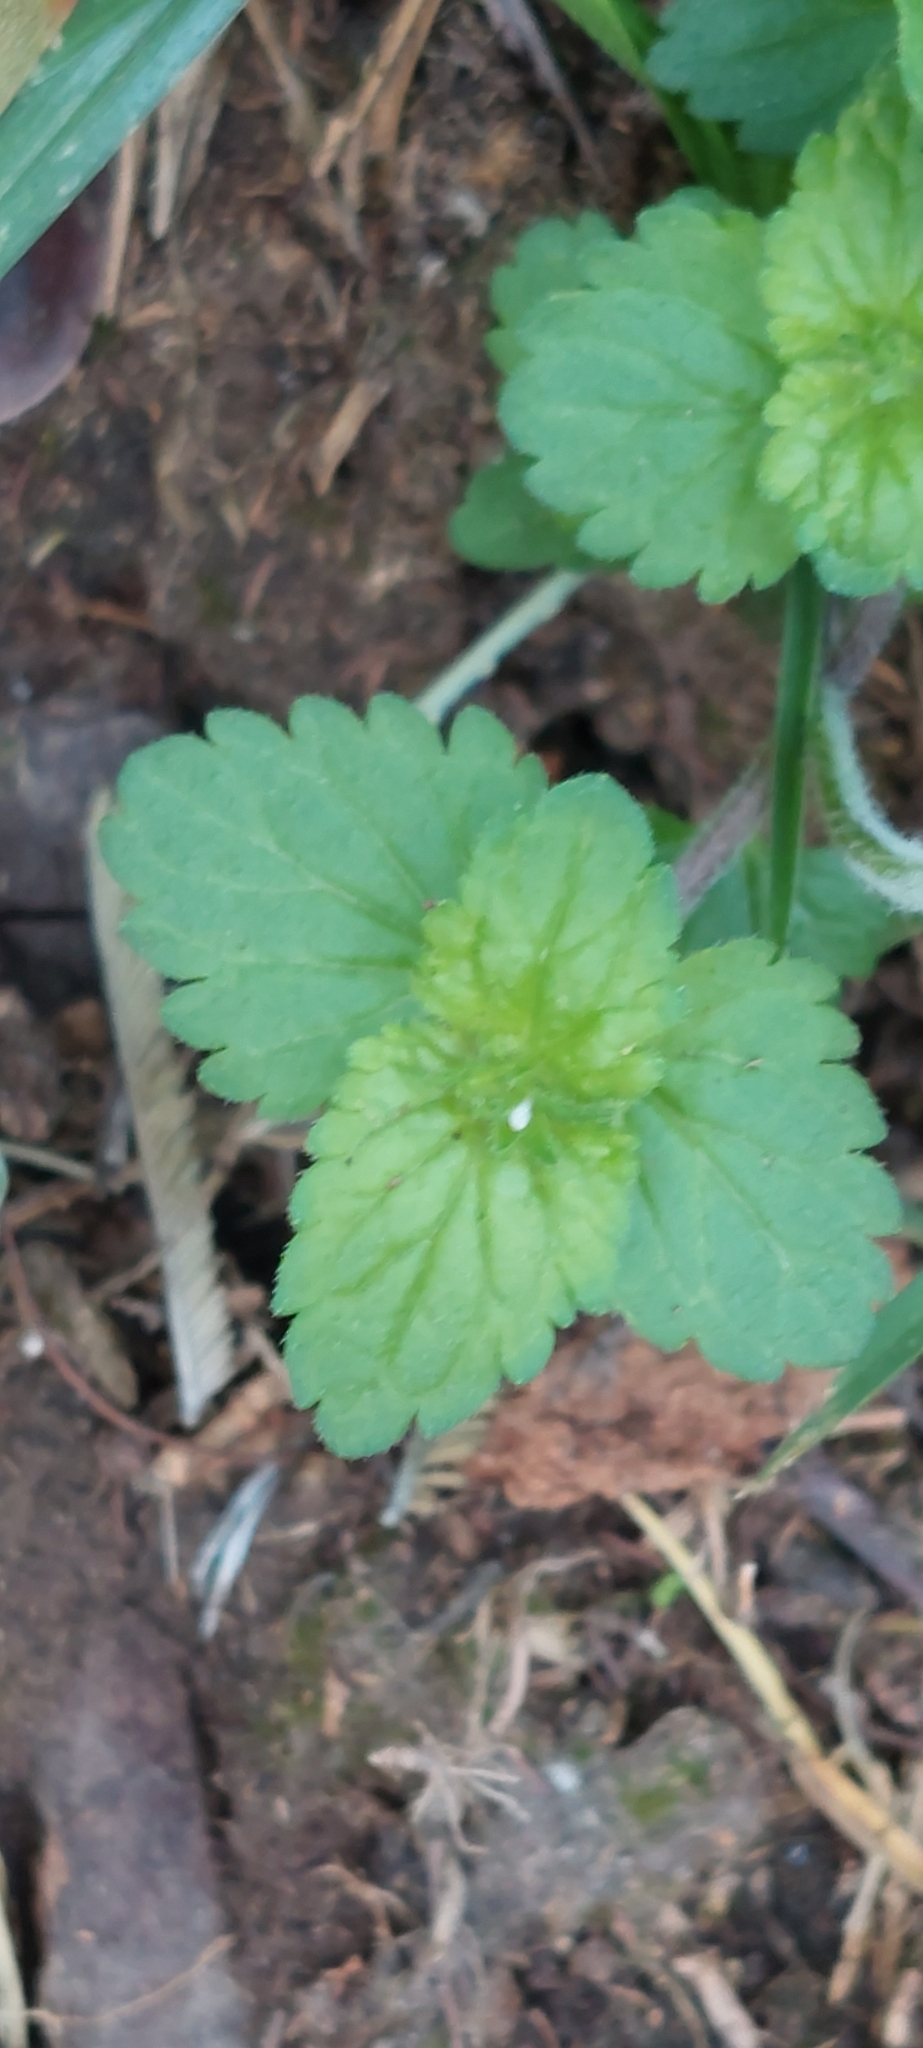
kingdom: Plantae
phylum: Tracheophyta
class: Magnoliopsida
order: Lamiales
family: Plantaginaceae
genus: Veronica
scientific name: Veronica javanica
